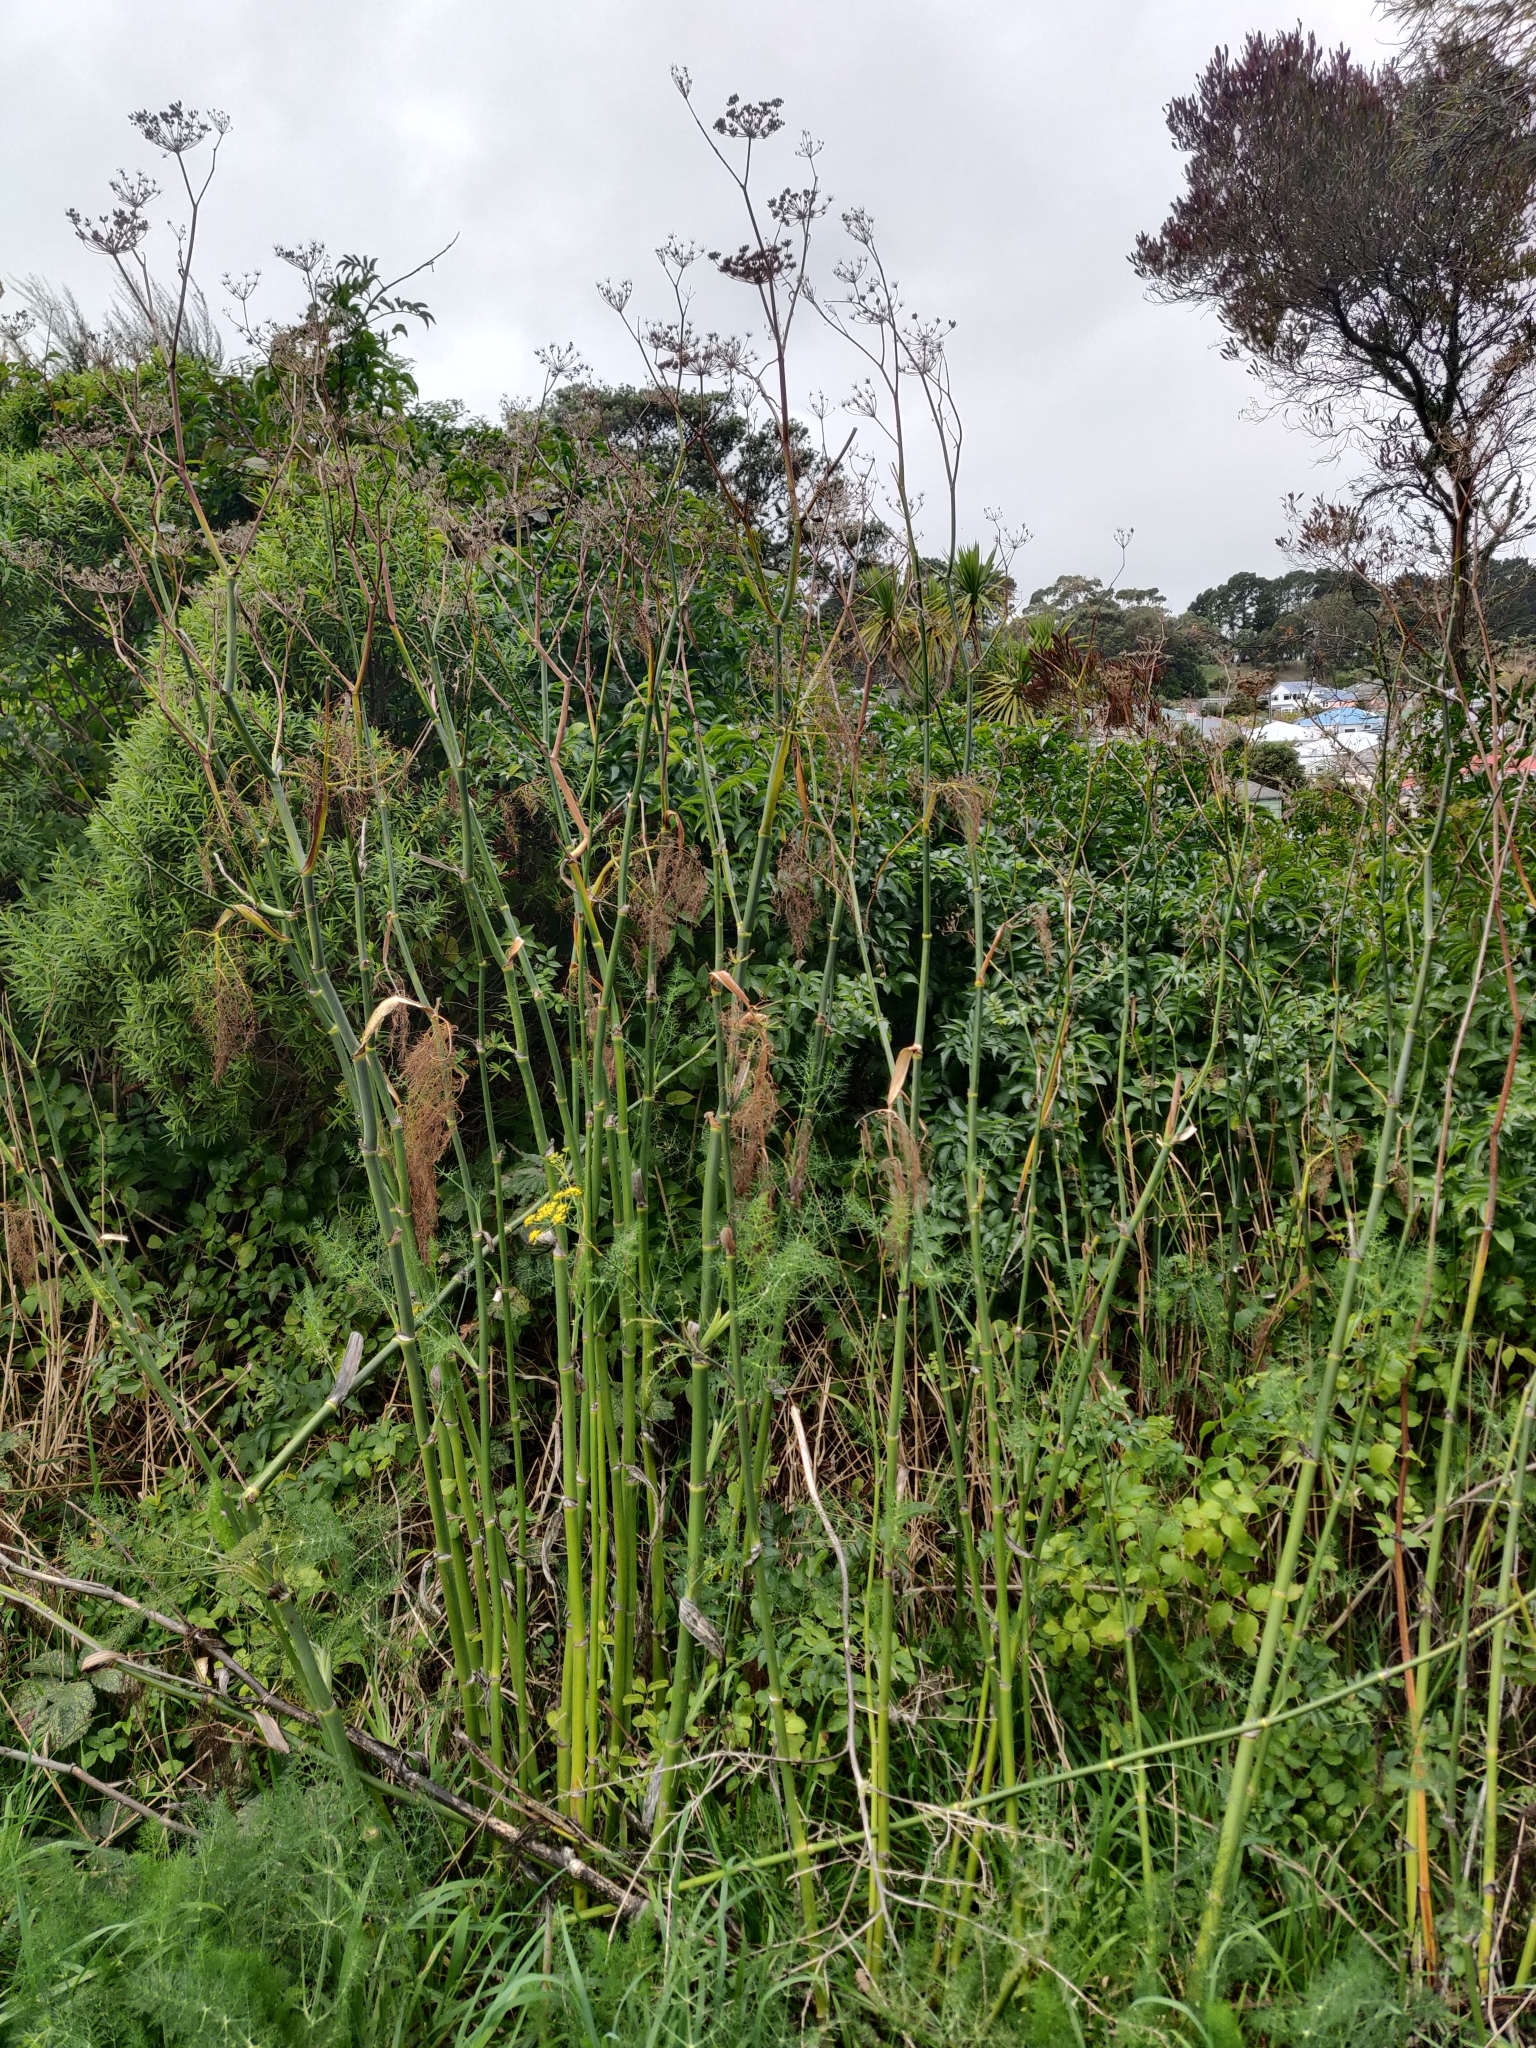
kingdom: Plantae
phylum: Tracheophyta
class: Magnoliopsida
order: Apiales
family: Apiaceae
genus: Foeniculum
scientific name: Foeniculum vulgare
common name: Fennel
